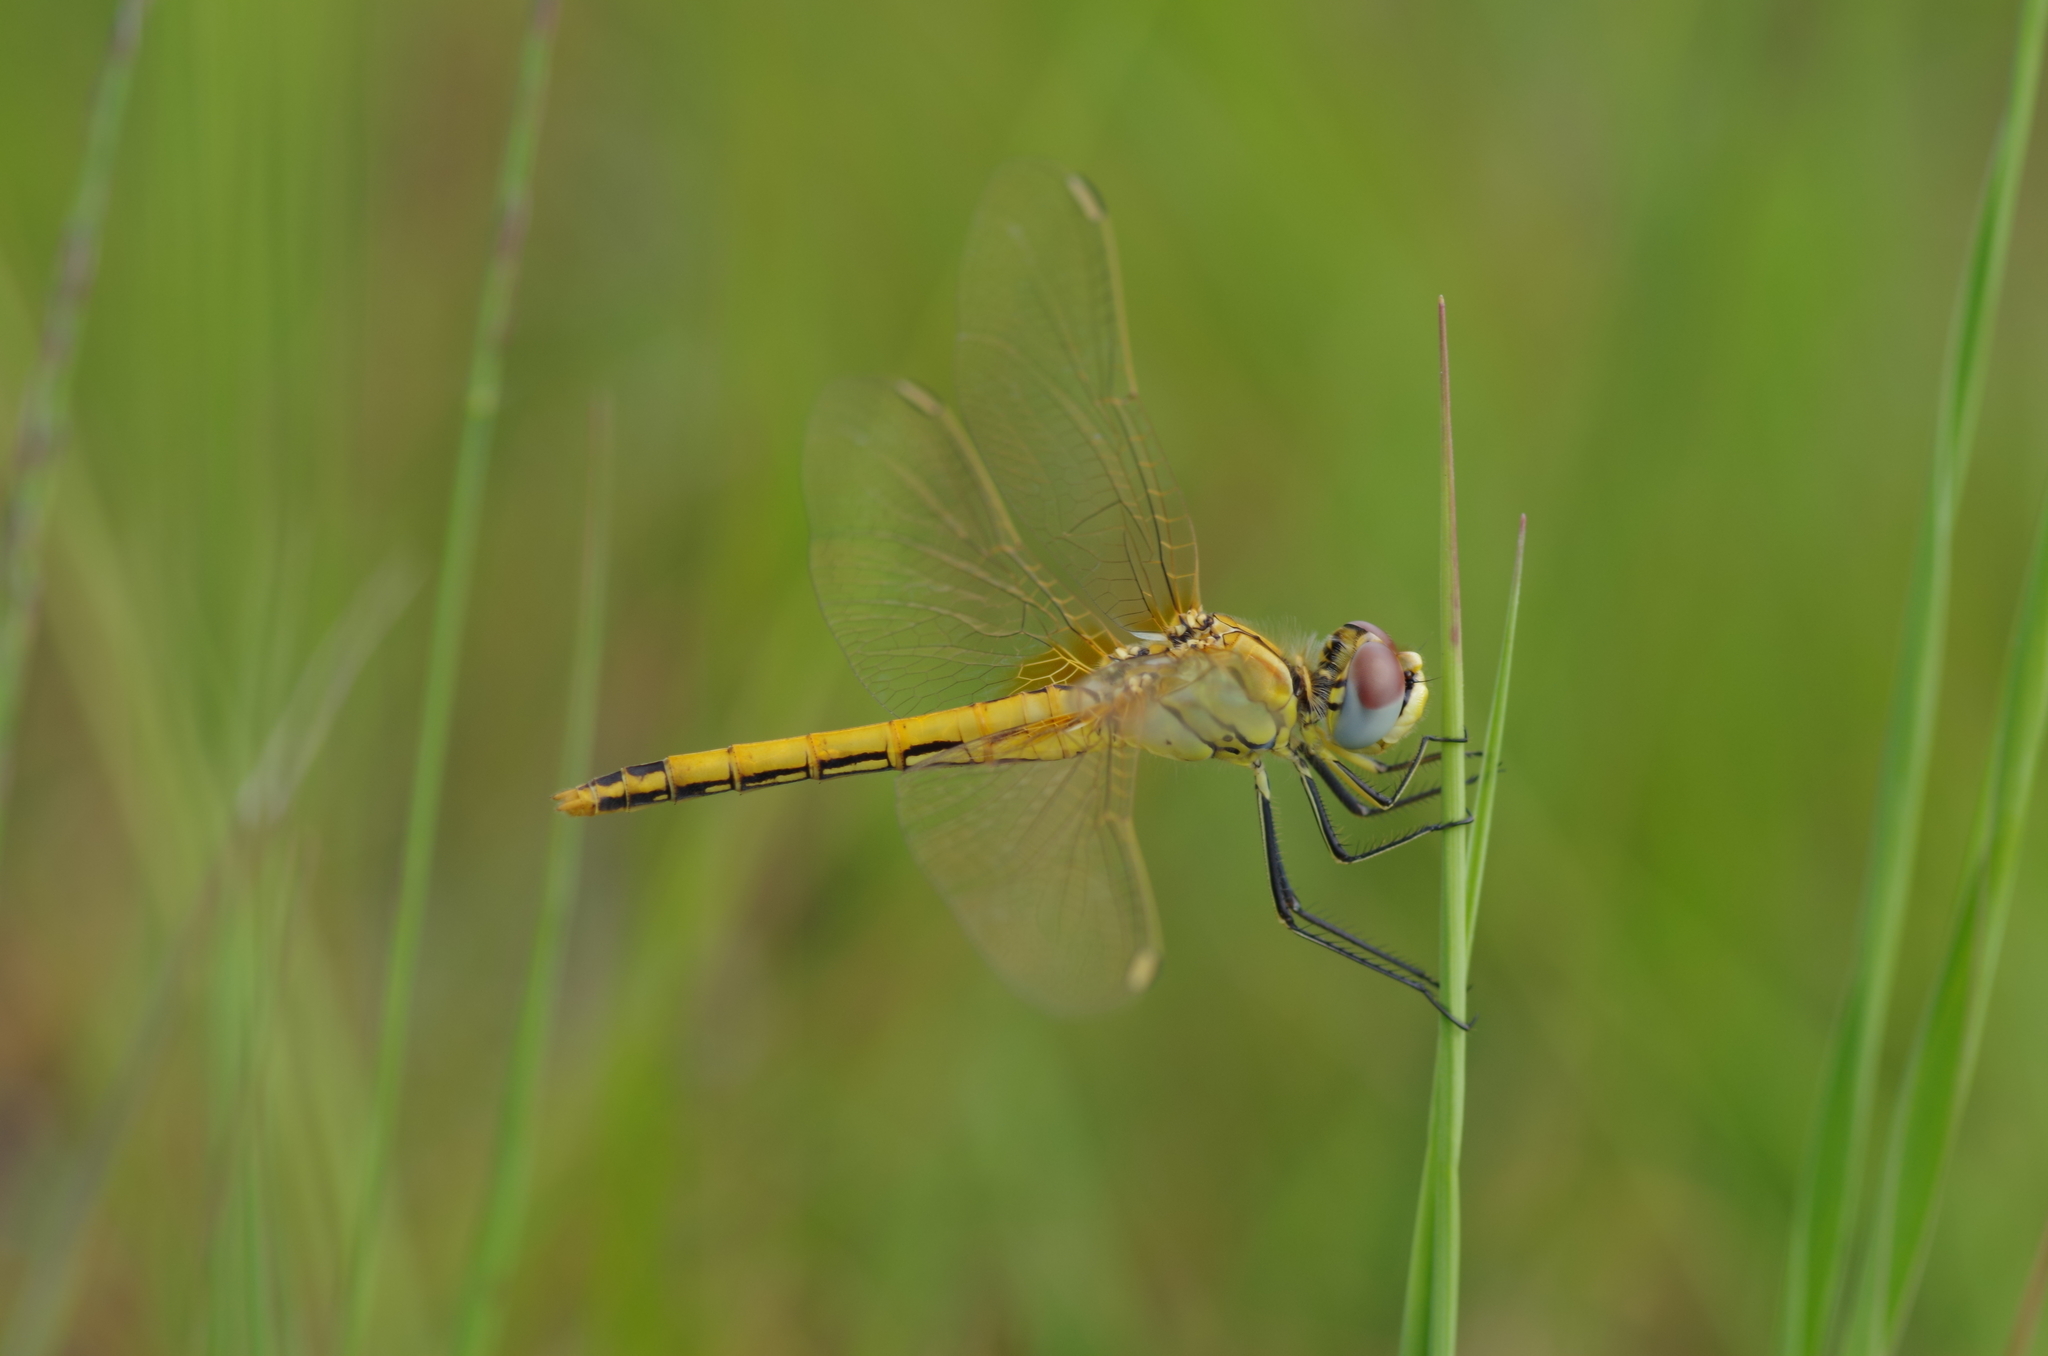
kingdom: Animalia
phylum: Arthropoda
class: Insecta
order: Odonata
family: Libellulidae
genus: Sympetrum
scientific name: Sympetrum fonscolombii
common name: Red-veined darter
